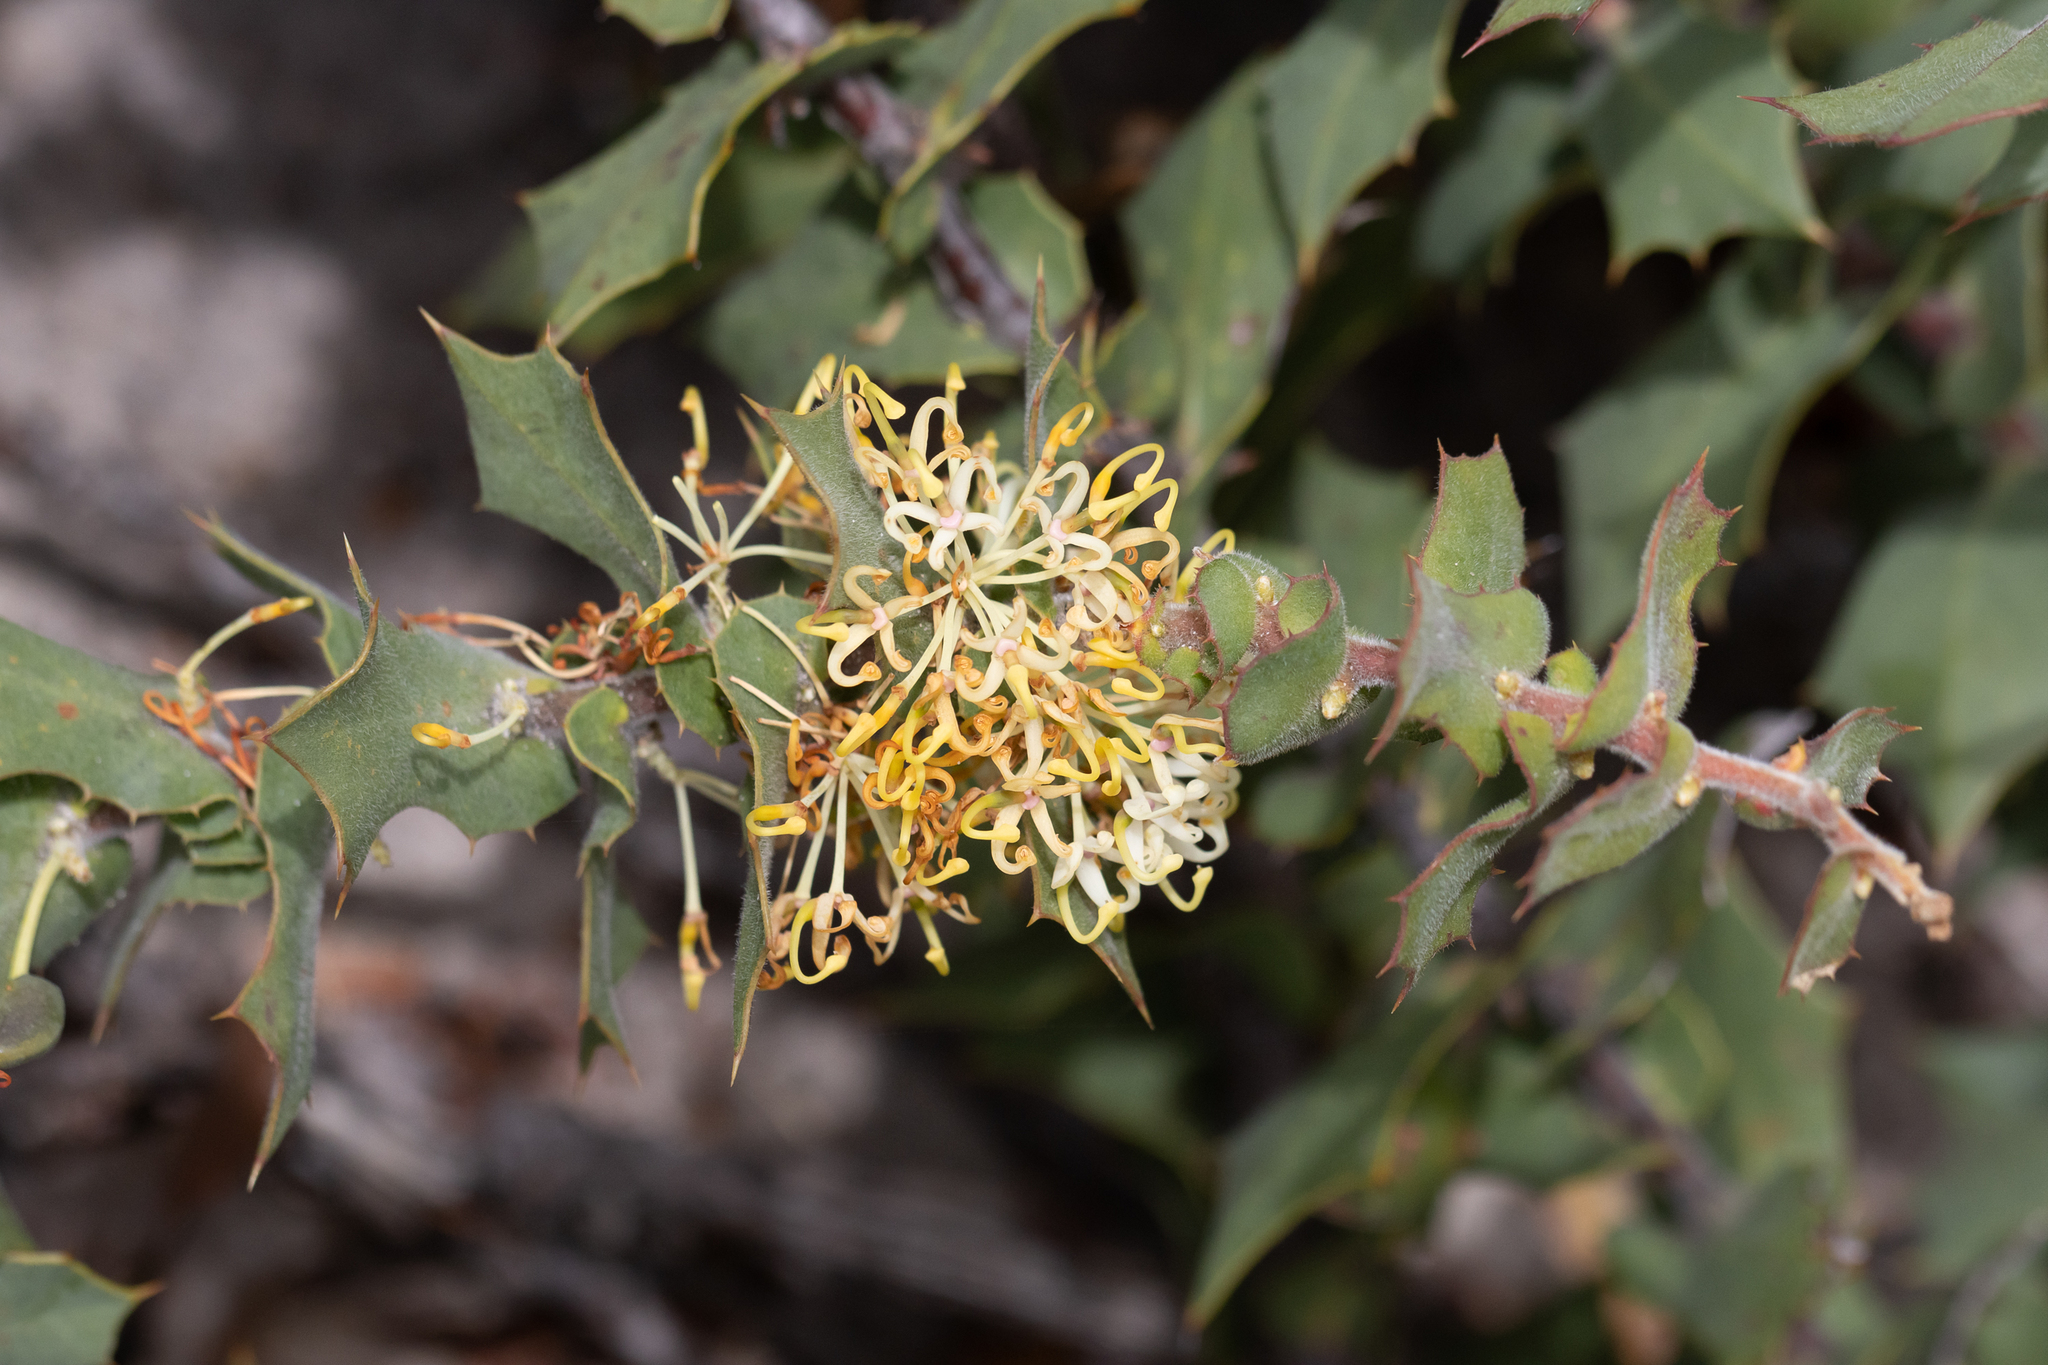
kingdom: Plantae
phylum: Tracheophyta
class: Magnoliopsida
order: Proteales
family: Proteaceae
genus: Hakea
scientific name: Hakea prostrata
